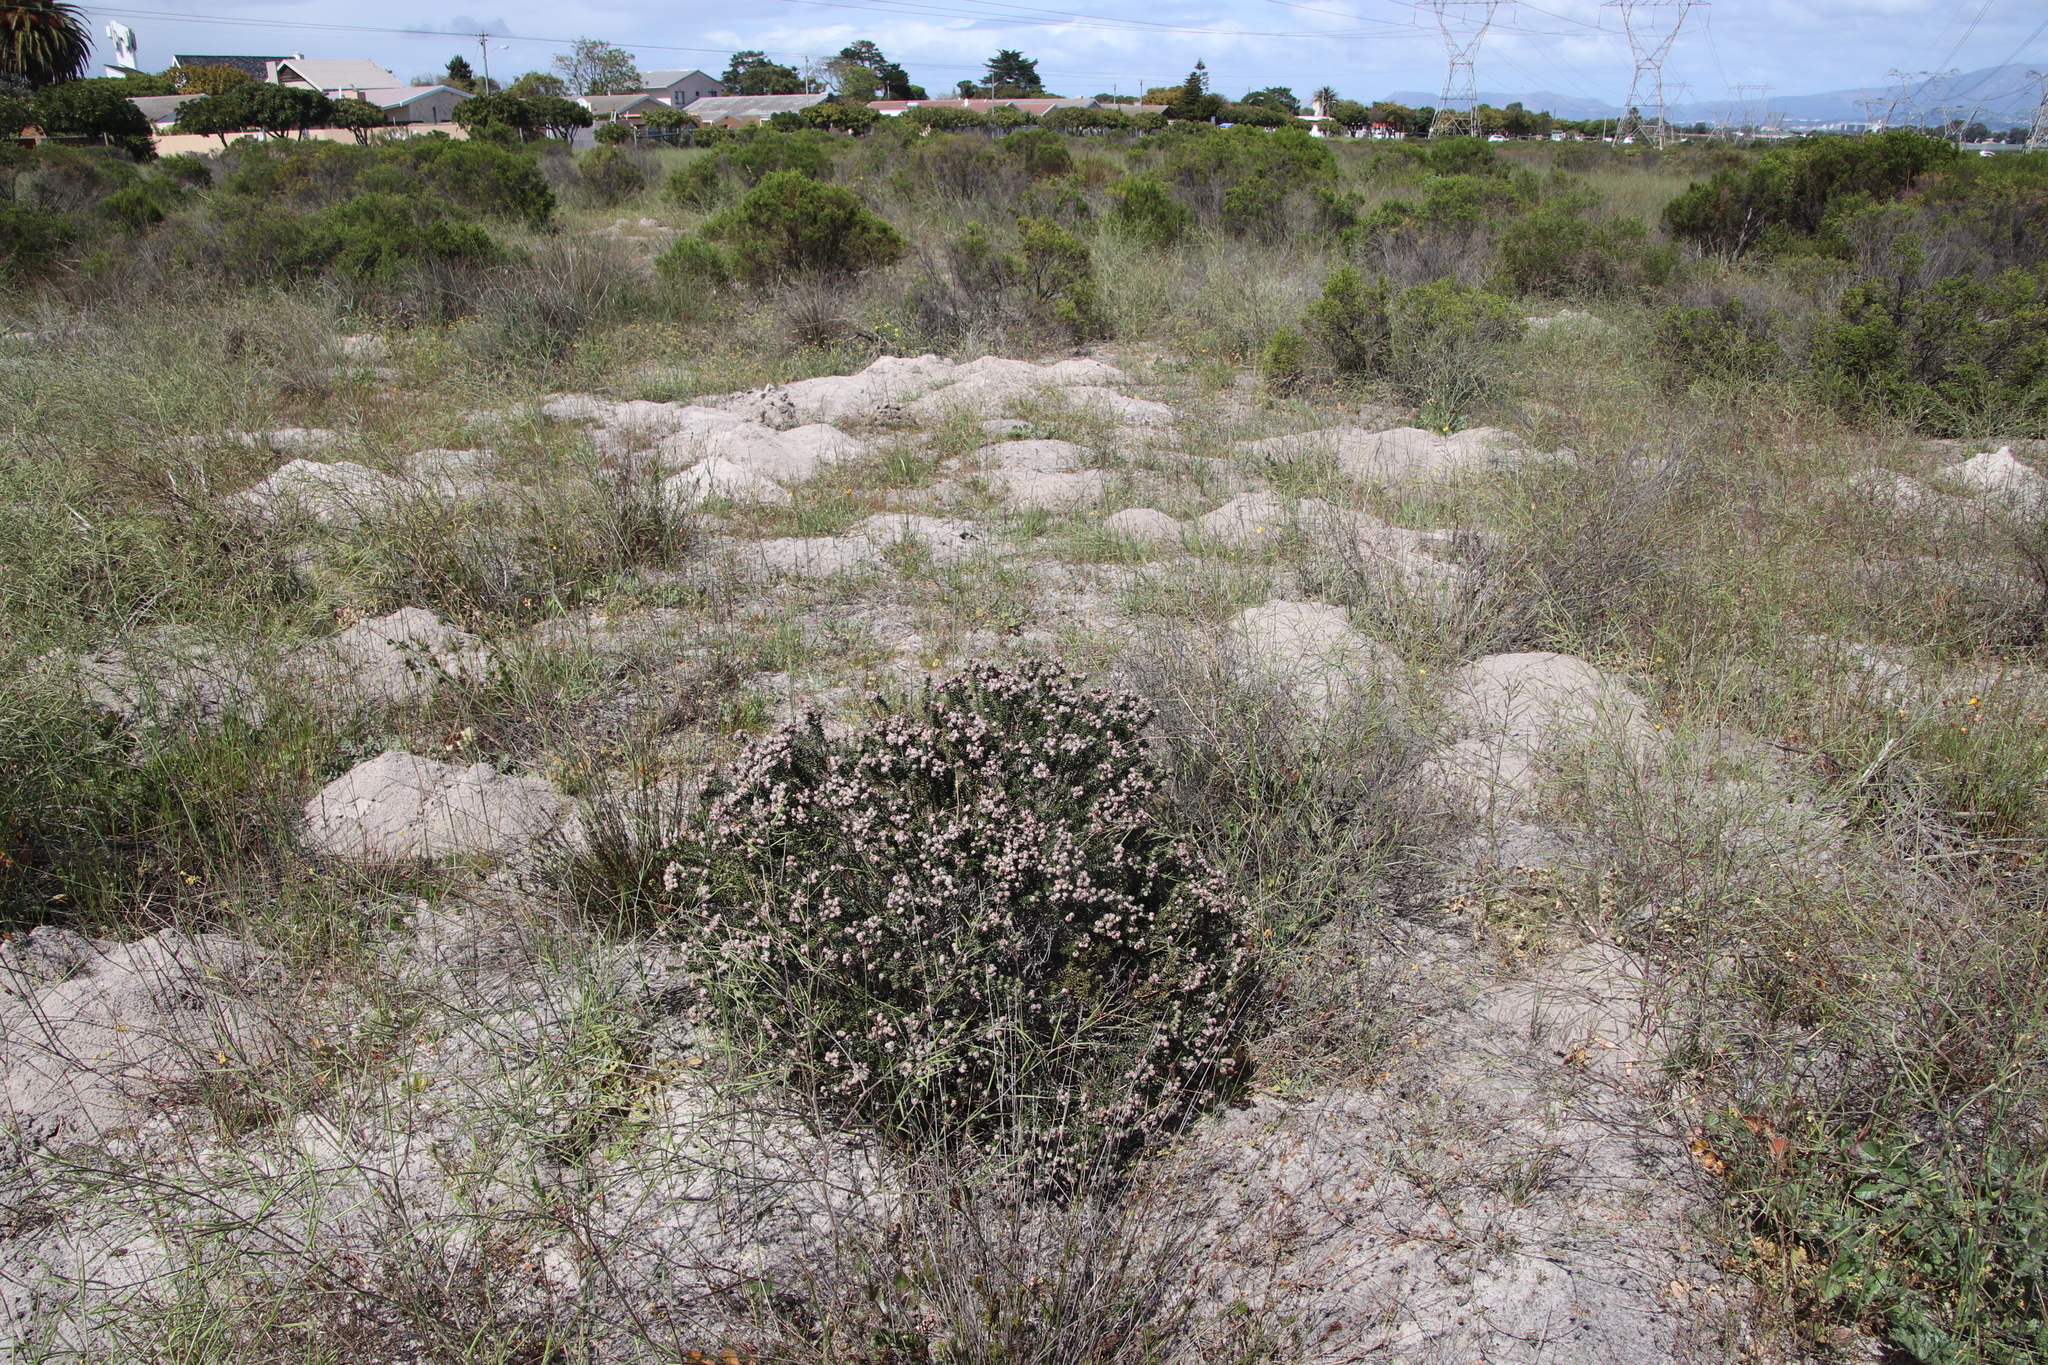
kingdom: Plantae
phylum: Tracheophyta
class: Magnoliopsida
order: Rosales
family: Rhamnaceae
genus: Trichocephalus
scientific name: Trichocephalus stipularis
